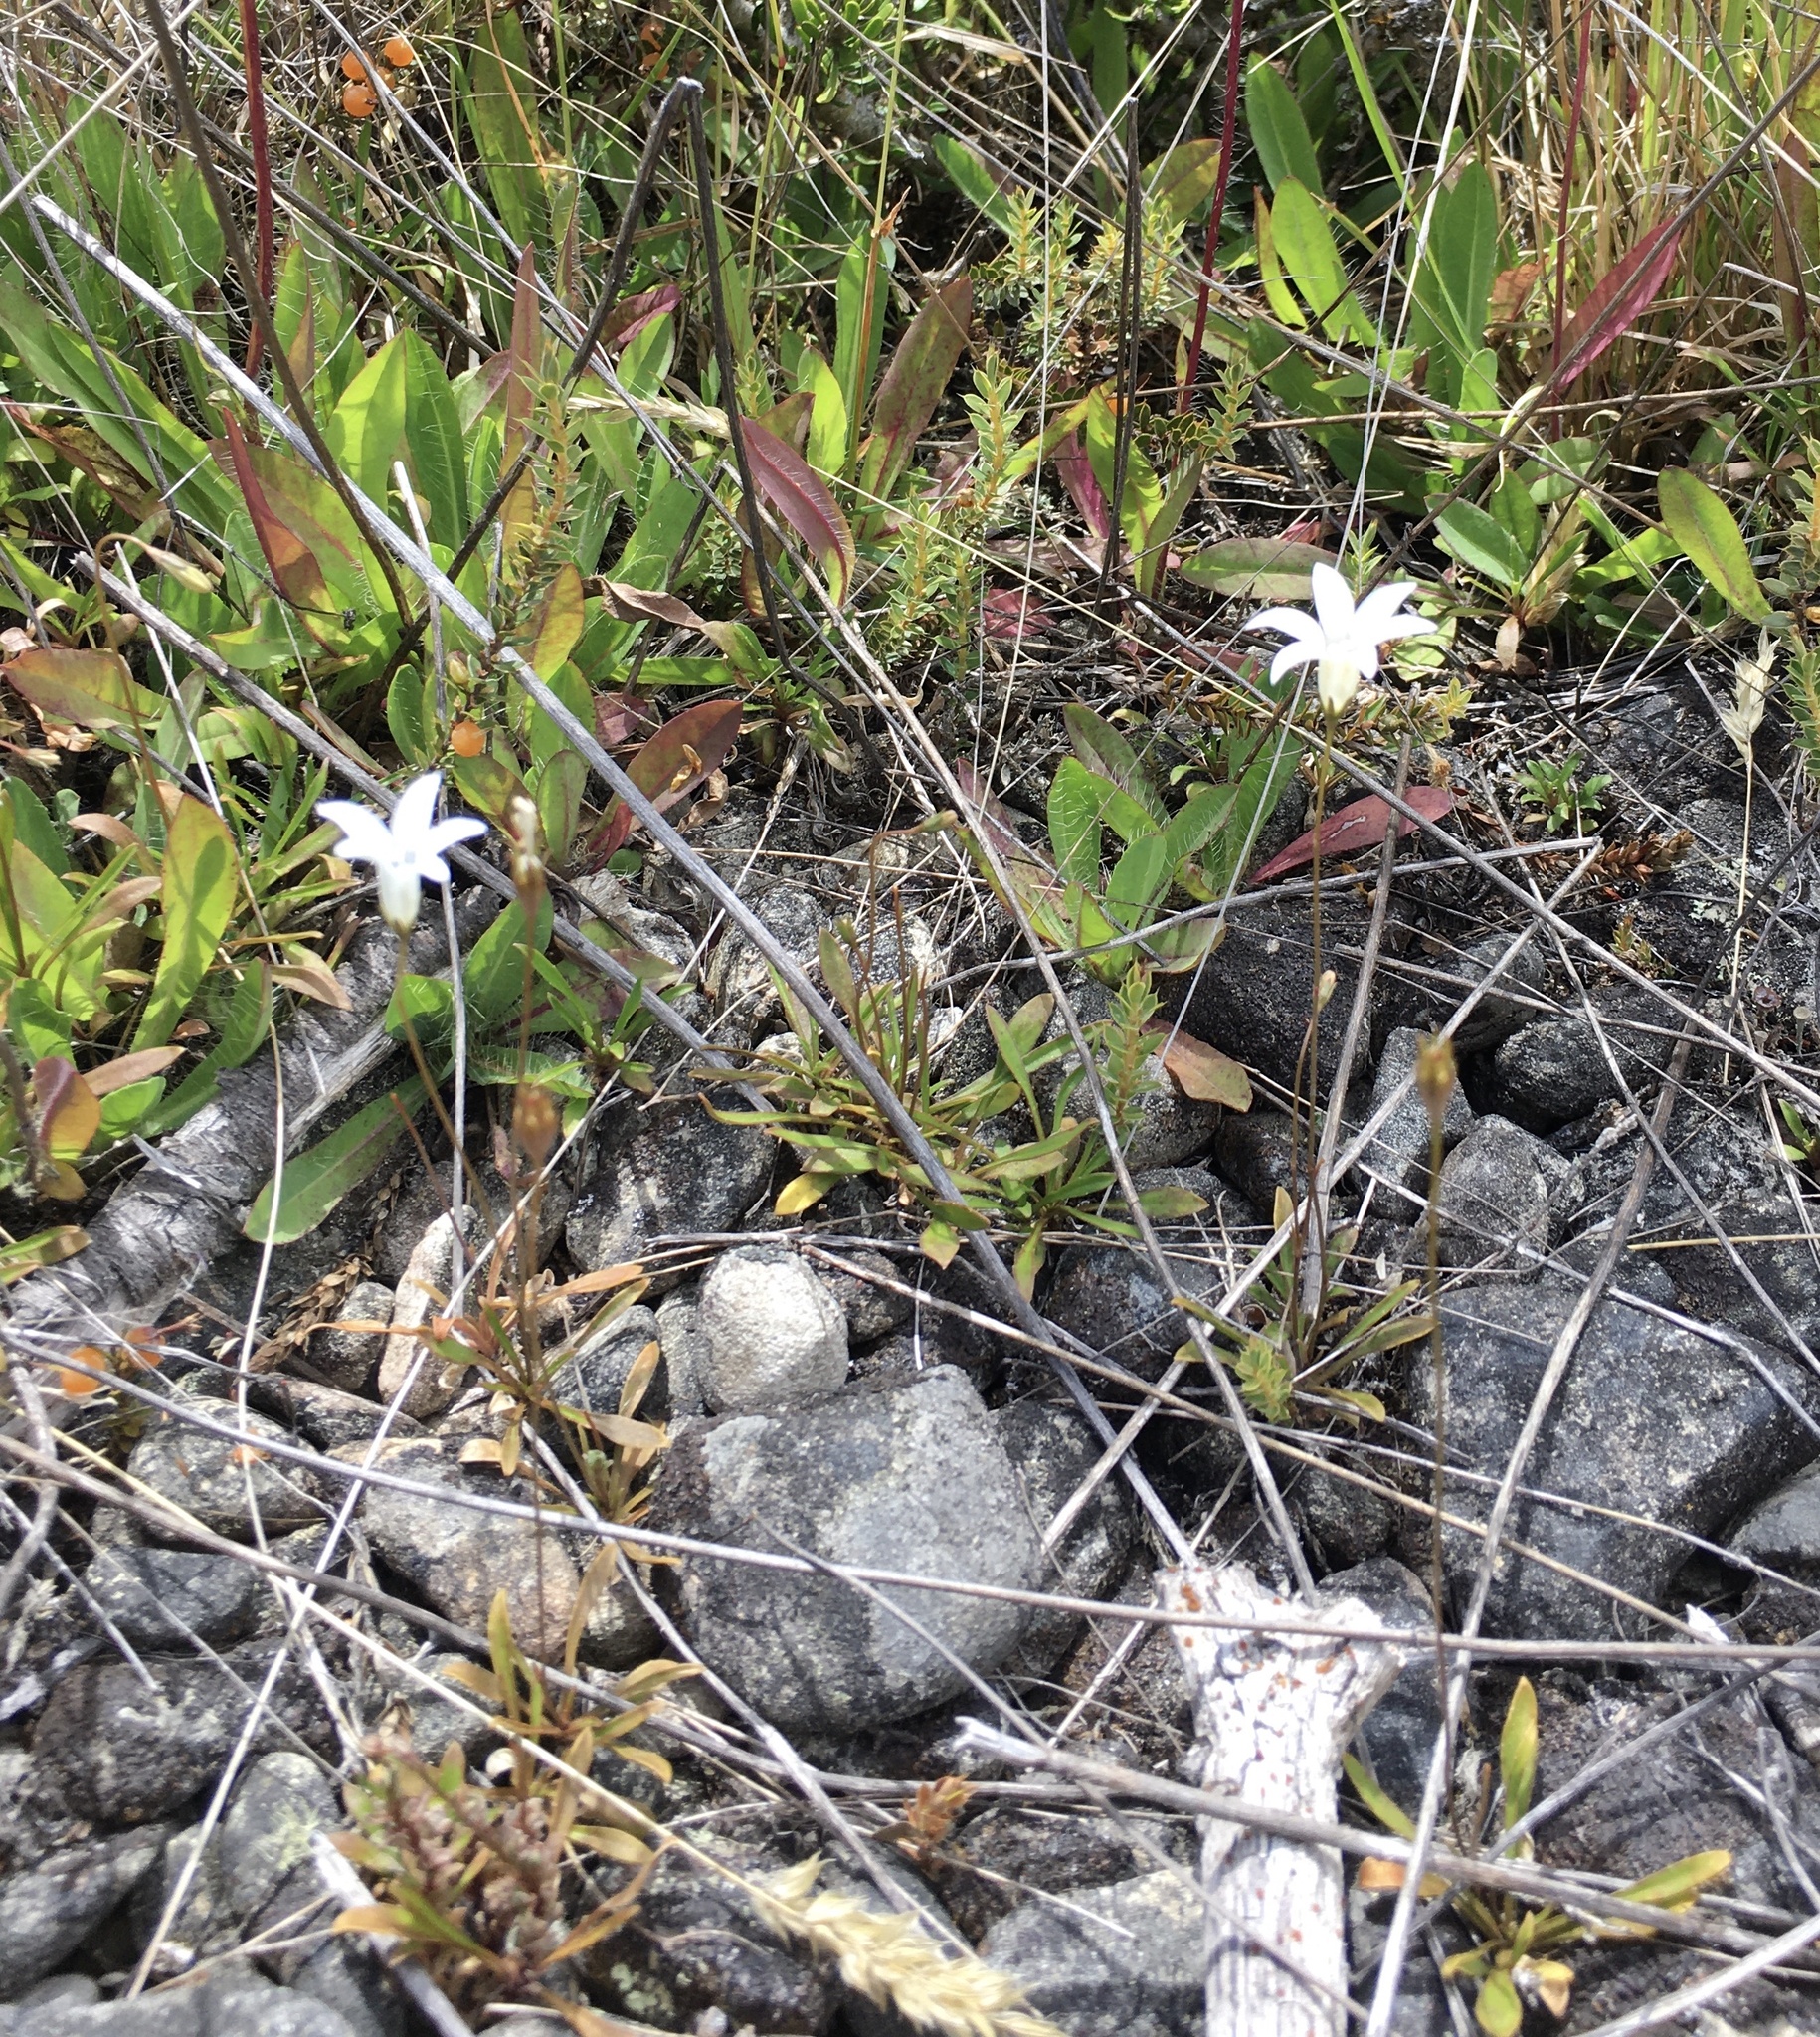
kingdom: Plantae
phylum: Tracheophyta
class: Magnoliopsida
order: Asterales
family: Campanulaceae
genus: Wahlenbergia
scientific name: Wahlenbergia albomarginata
